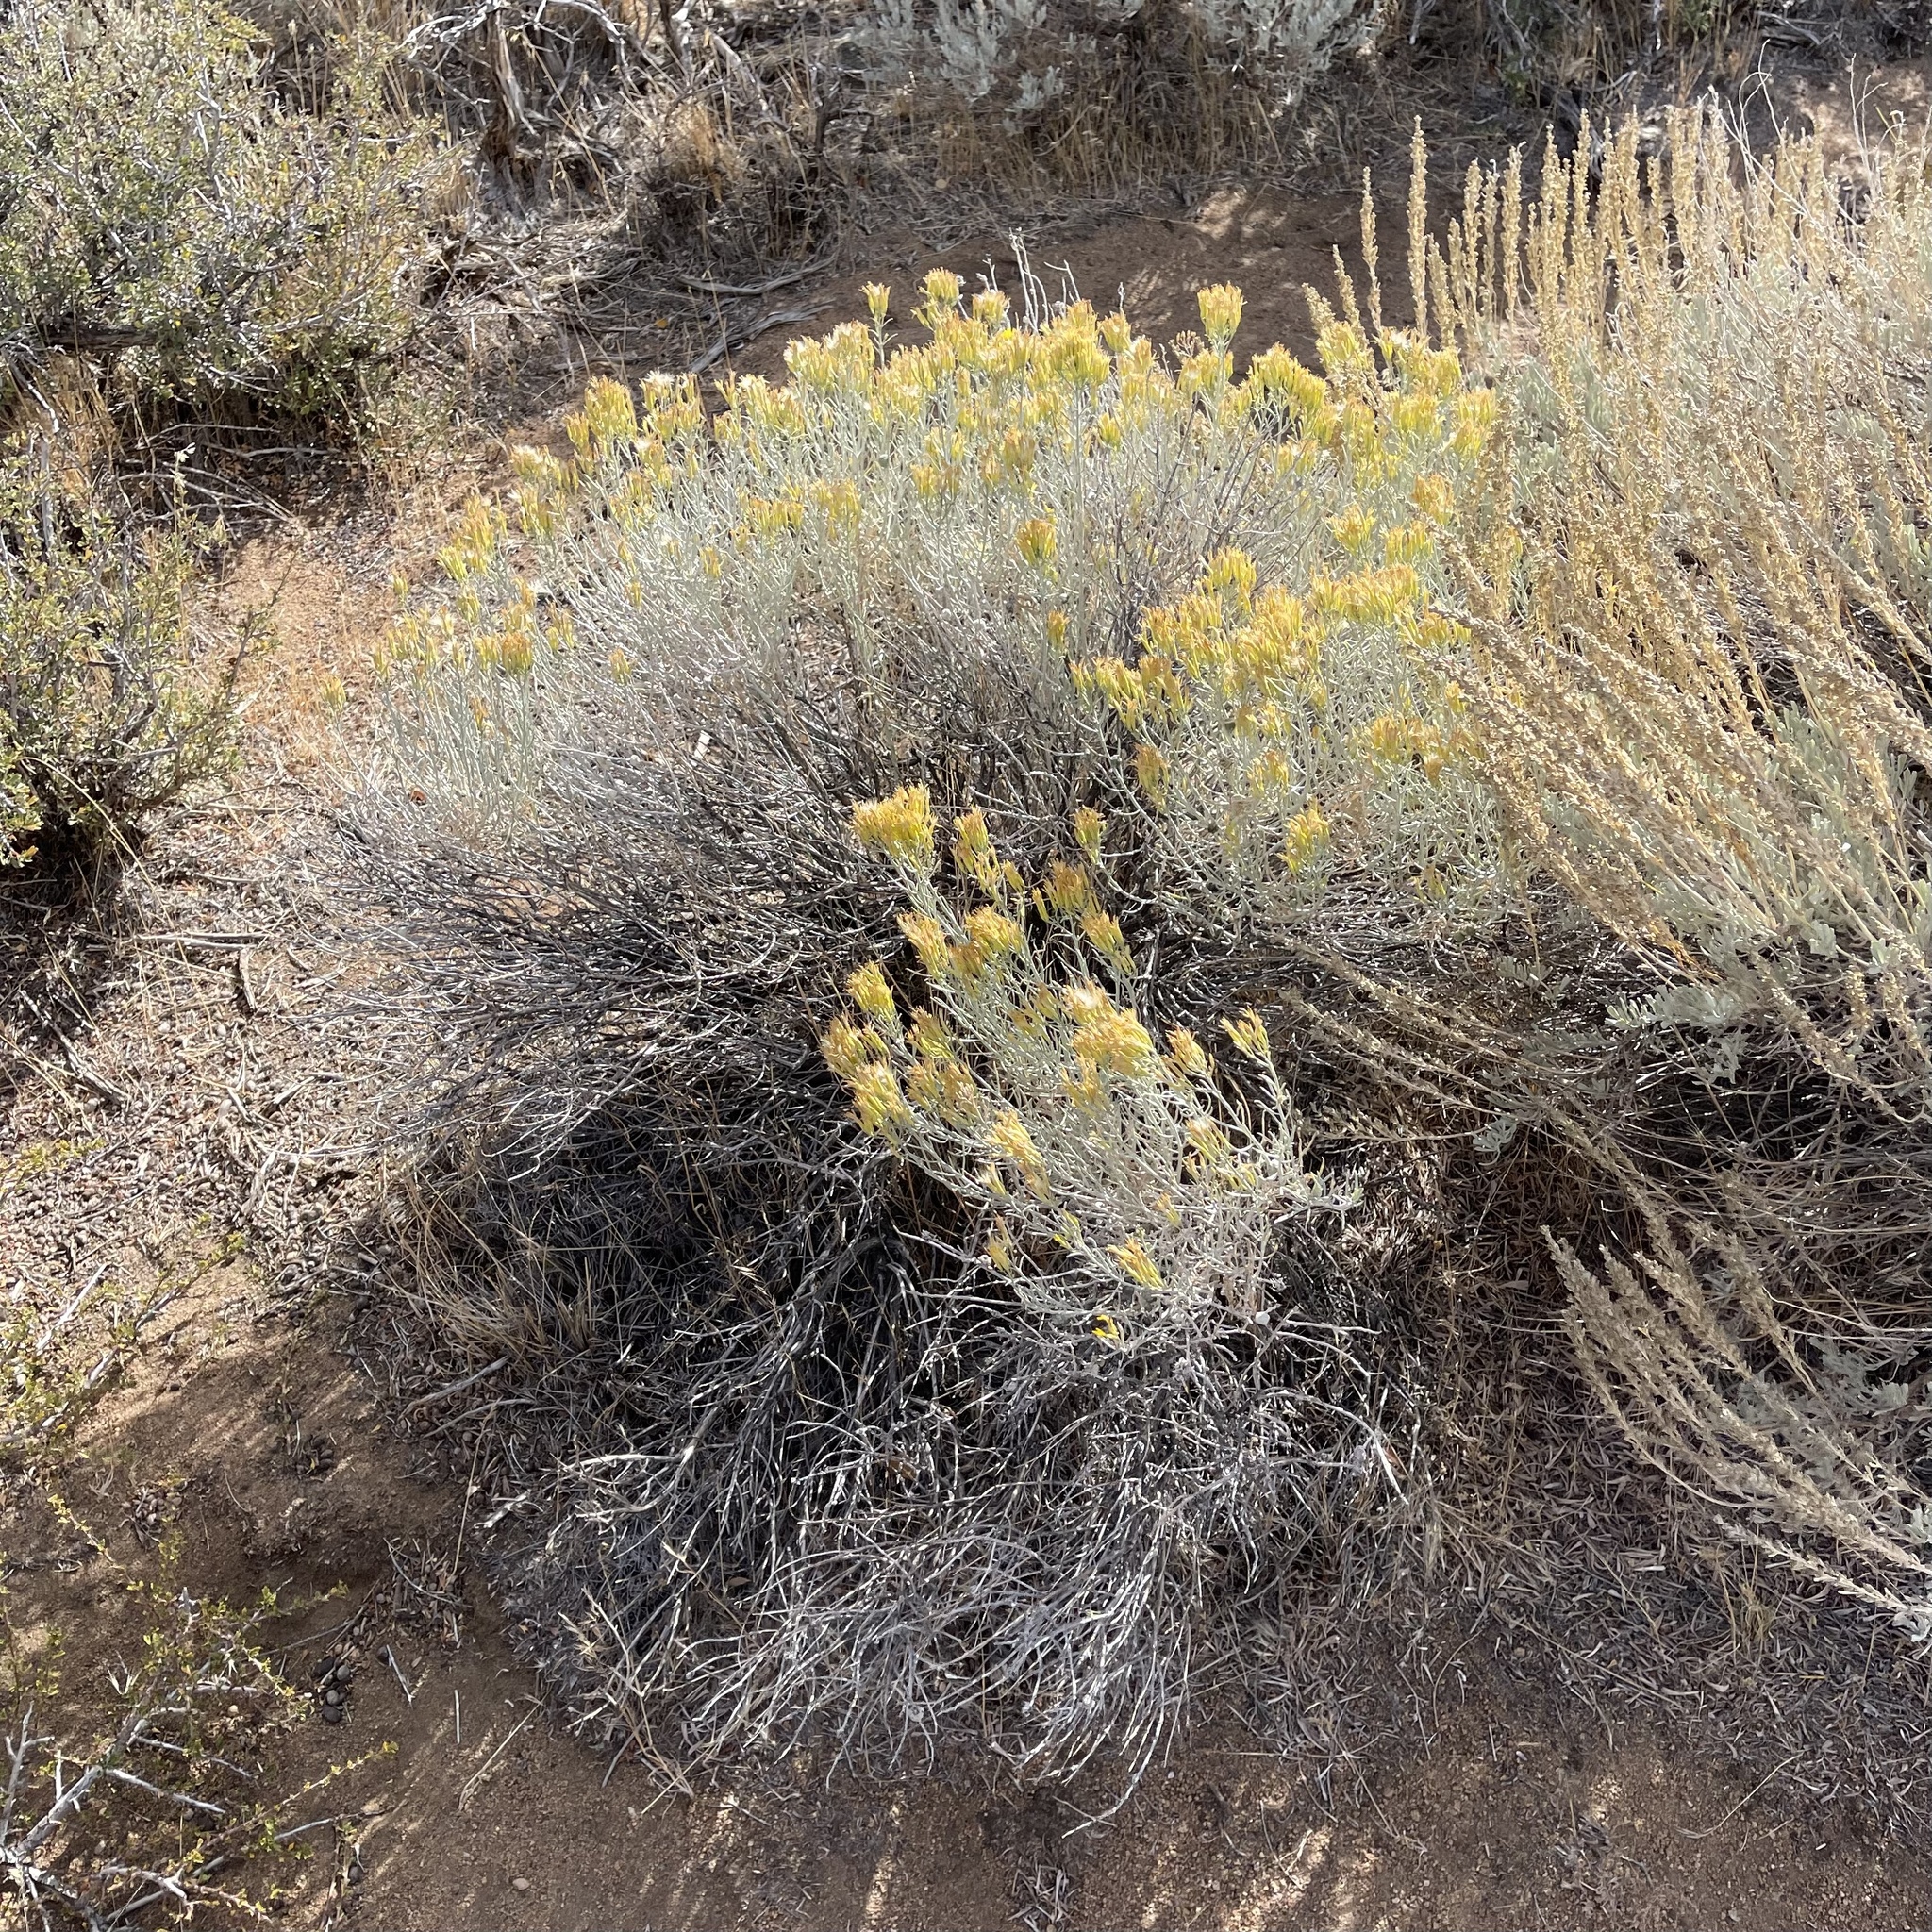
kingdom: Plantae
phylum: Tracheophyta
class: Magnoliopsida
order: Asterales
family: Asteraceae
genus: Ericameria
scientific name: Ericameria nauseosa
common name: Rubber rabbitbrush
